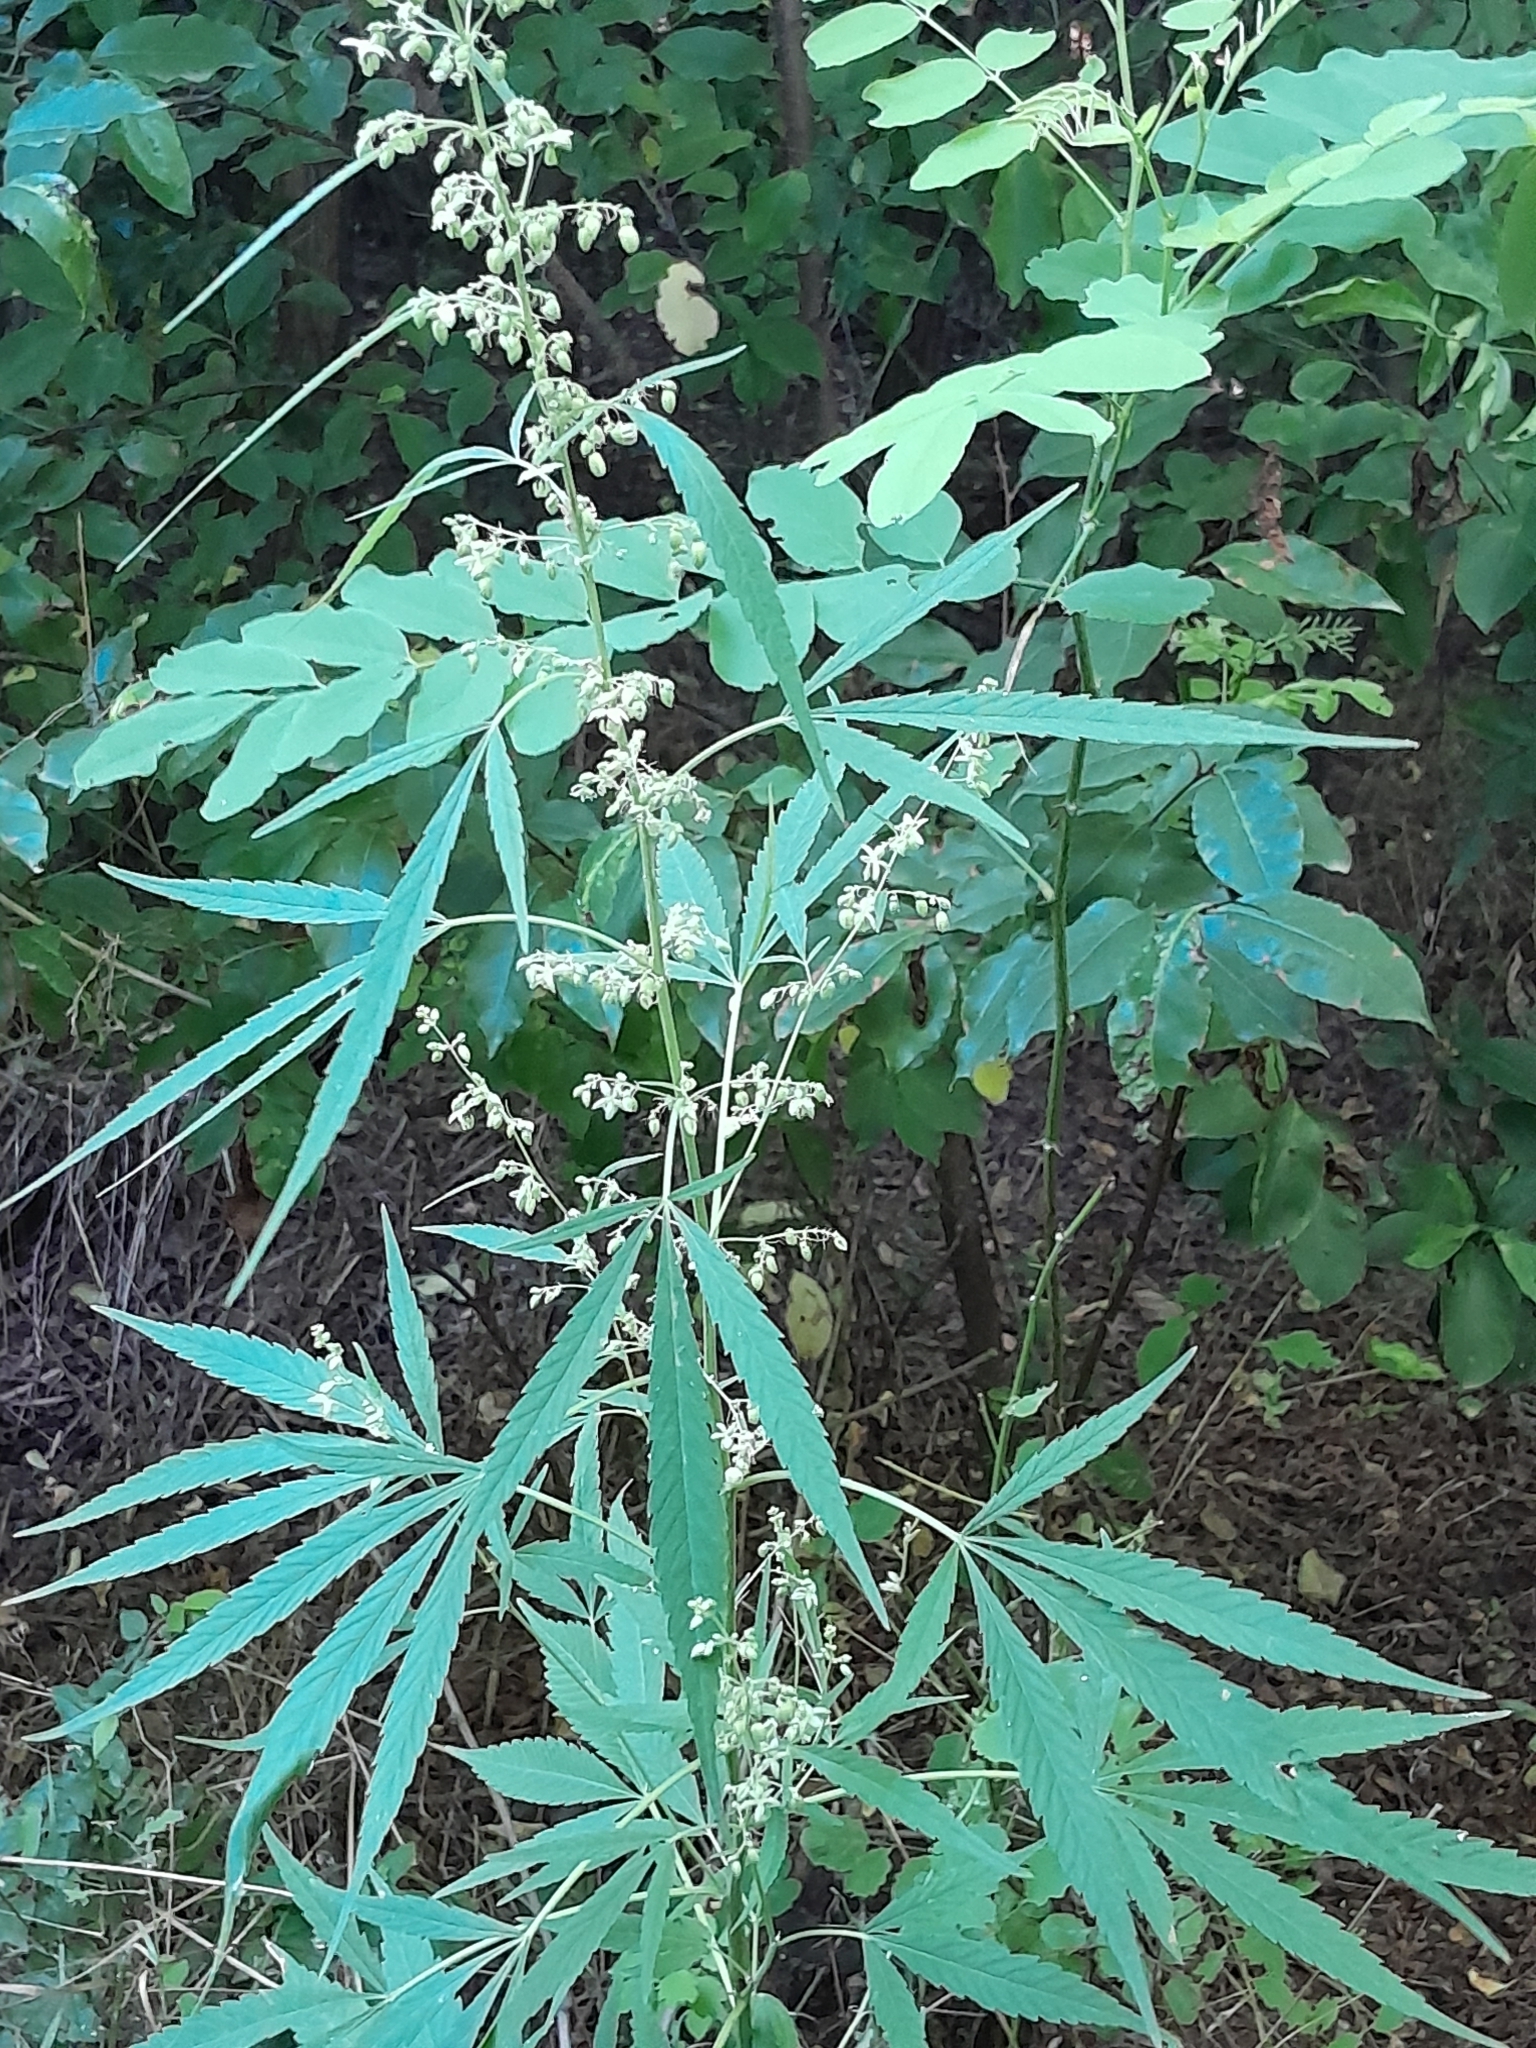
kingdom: Plantae
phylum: Tracheophyta
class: Magnoliopsida
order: Rosales
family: Cannabaceae
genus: Cannabis
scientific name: Cannabis sativa
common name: Hemp
